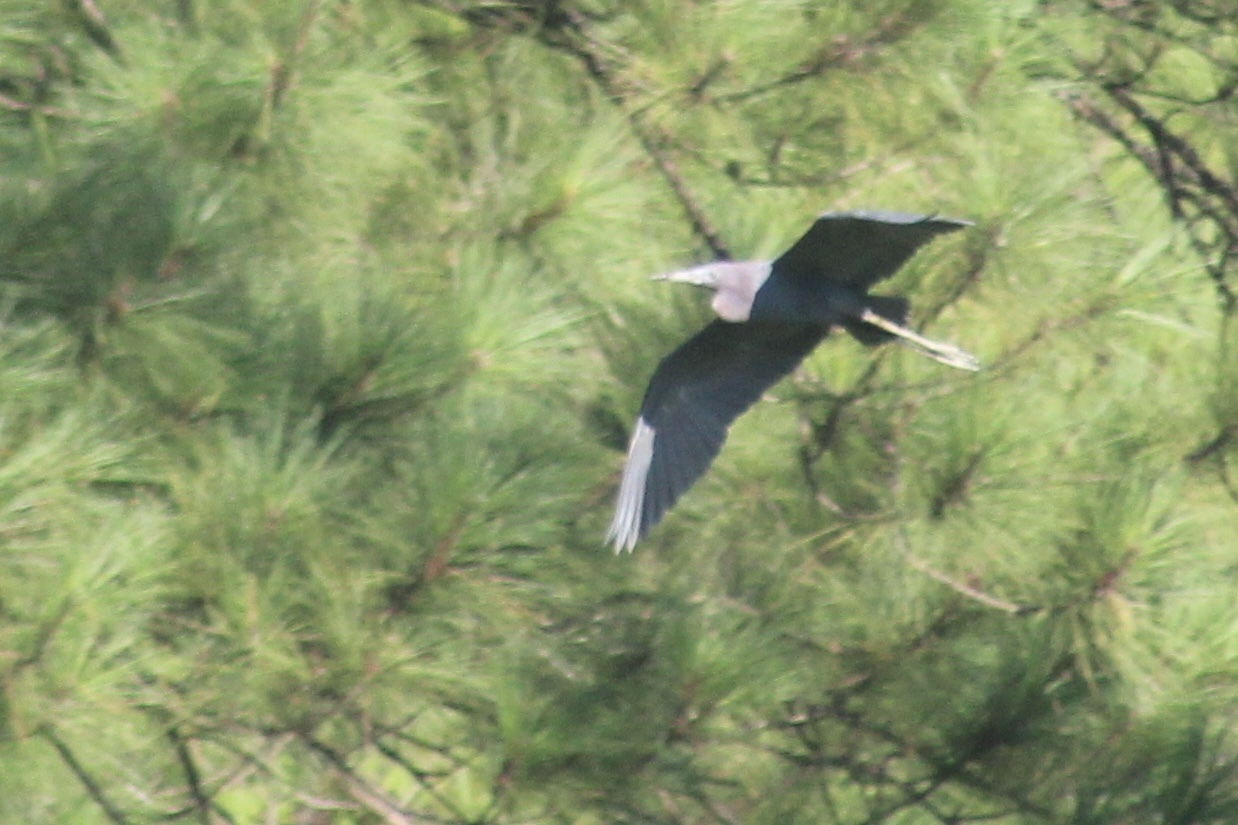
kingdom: Animalia
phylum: Chordata
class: Aves
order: Pelecaniformes
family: Ardeidae
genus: Egretta
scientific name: Egretta caerulea
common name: Little blue heron
